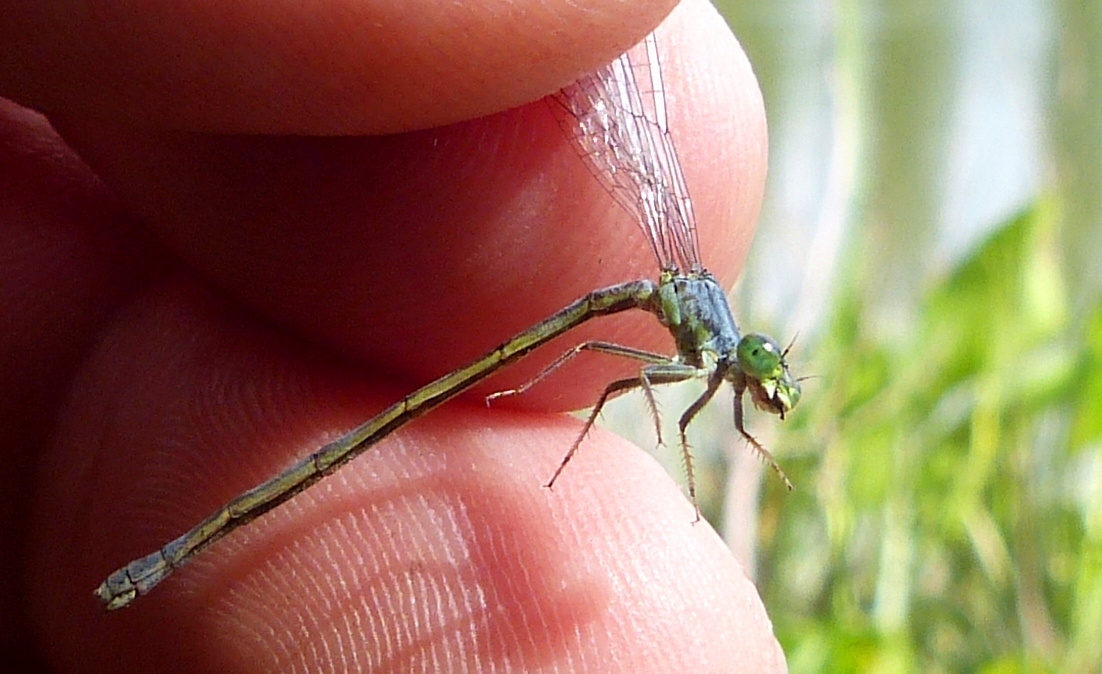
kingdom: Animalia
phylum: Arthropoda
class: Insecta
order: Odonata
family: Coenagrionidae
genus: Ischnura
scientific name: Ischnura verticalis
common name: Eastern forktail
